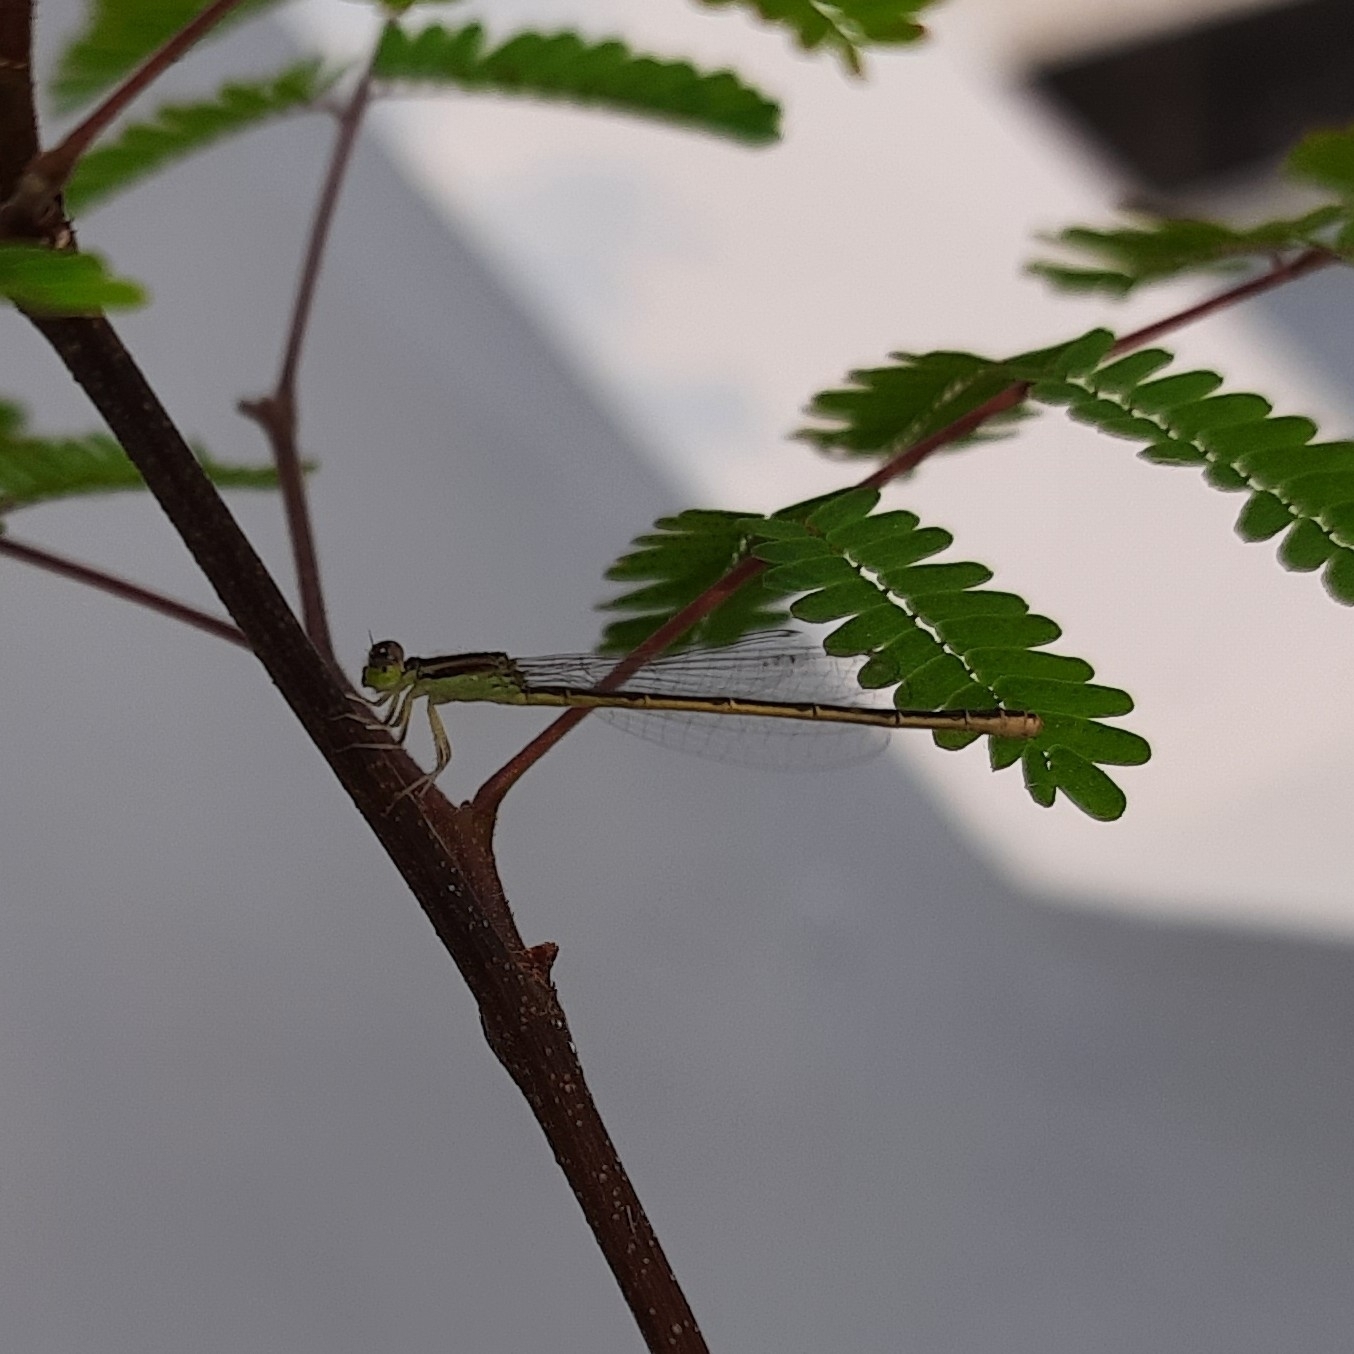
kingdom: Animalia
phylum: Arthropoda
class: Insecta
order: Odonata
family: Coenagrionidae
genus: Ischnura
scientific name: Ischnura rubilio
